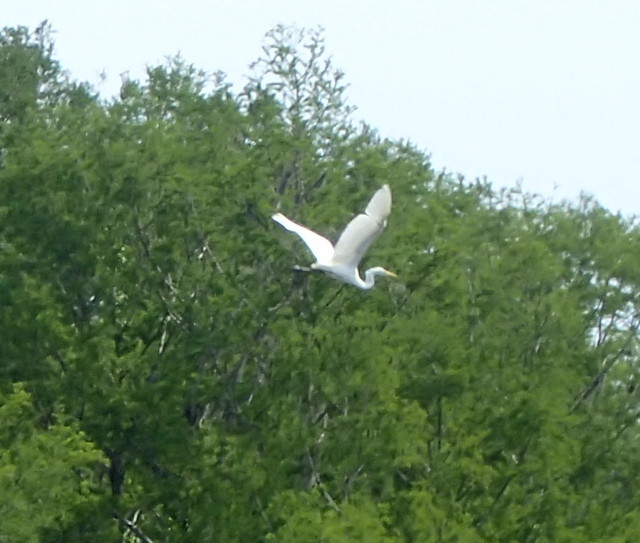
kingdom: Animalia
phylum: Chordata
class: Aves
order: Pelecaniformes
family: Ardeidae
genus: Ardea
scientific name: Ardea alba
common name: Great egret
